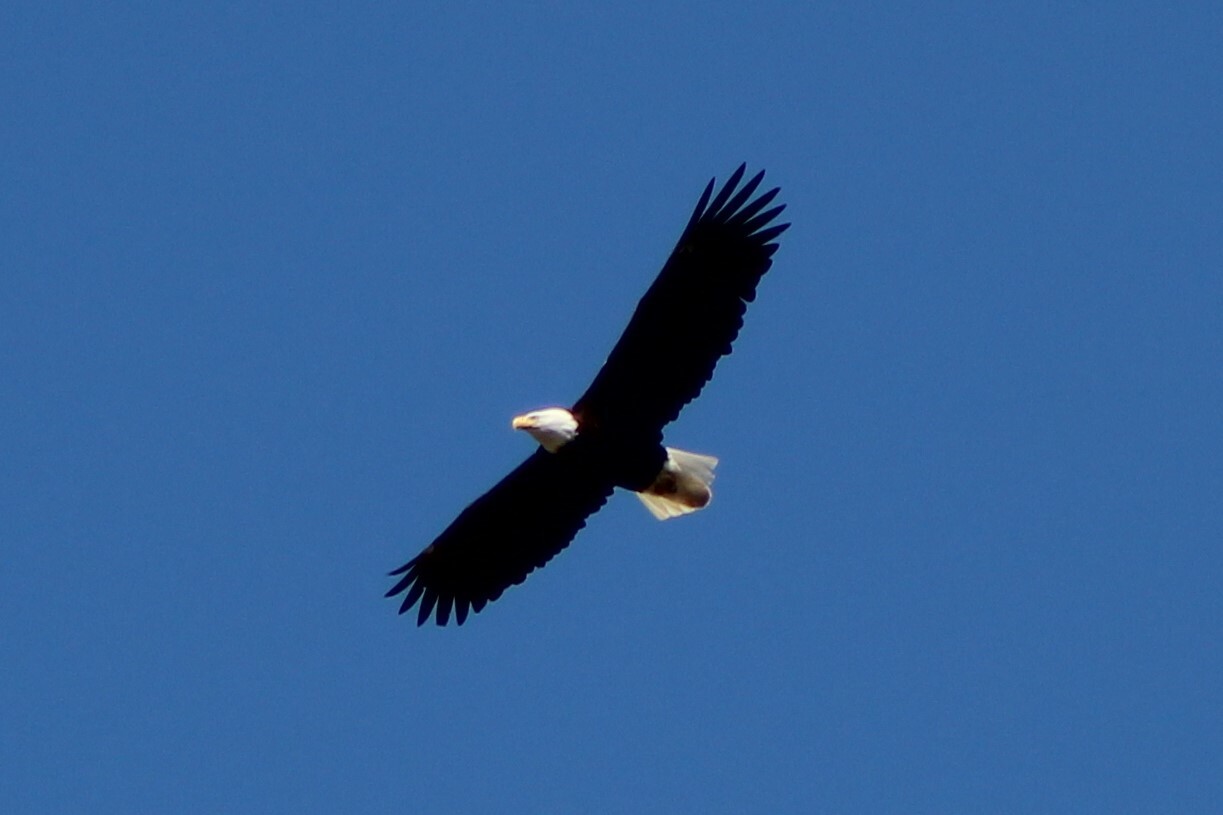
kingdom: Animalia
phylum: Chordata
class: Aves
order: Accipitriformes
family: Accipitridae
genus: Haliaeetus
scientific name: Haliaeetus leucocephalus
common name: Bald eagle
